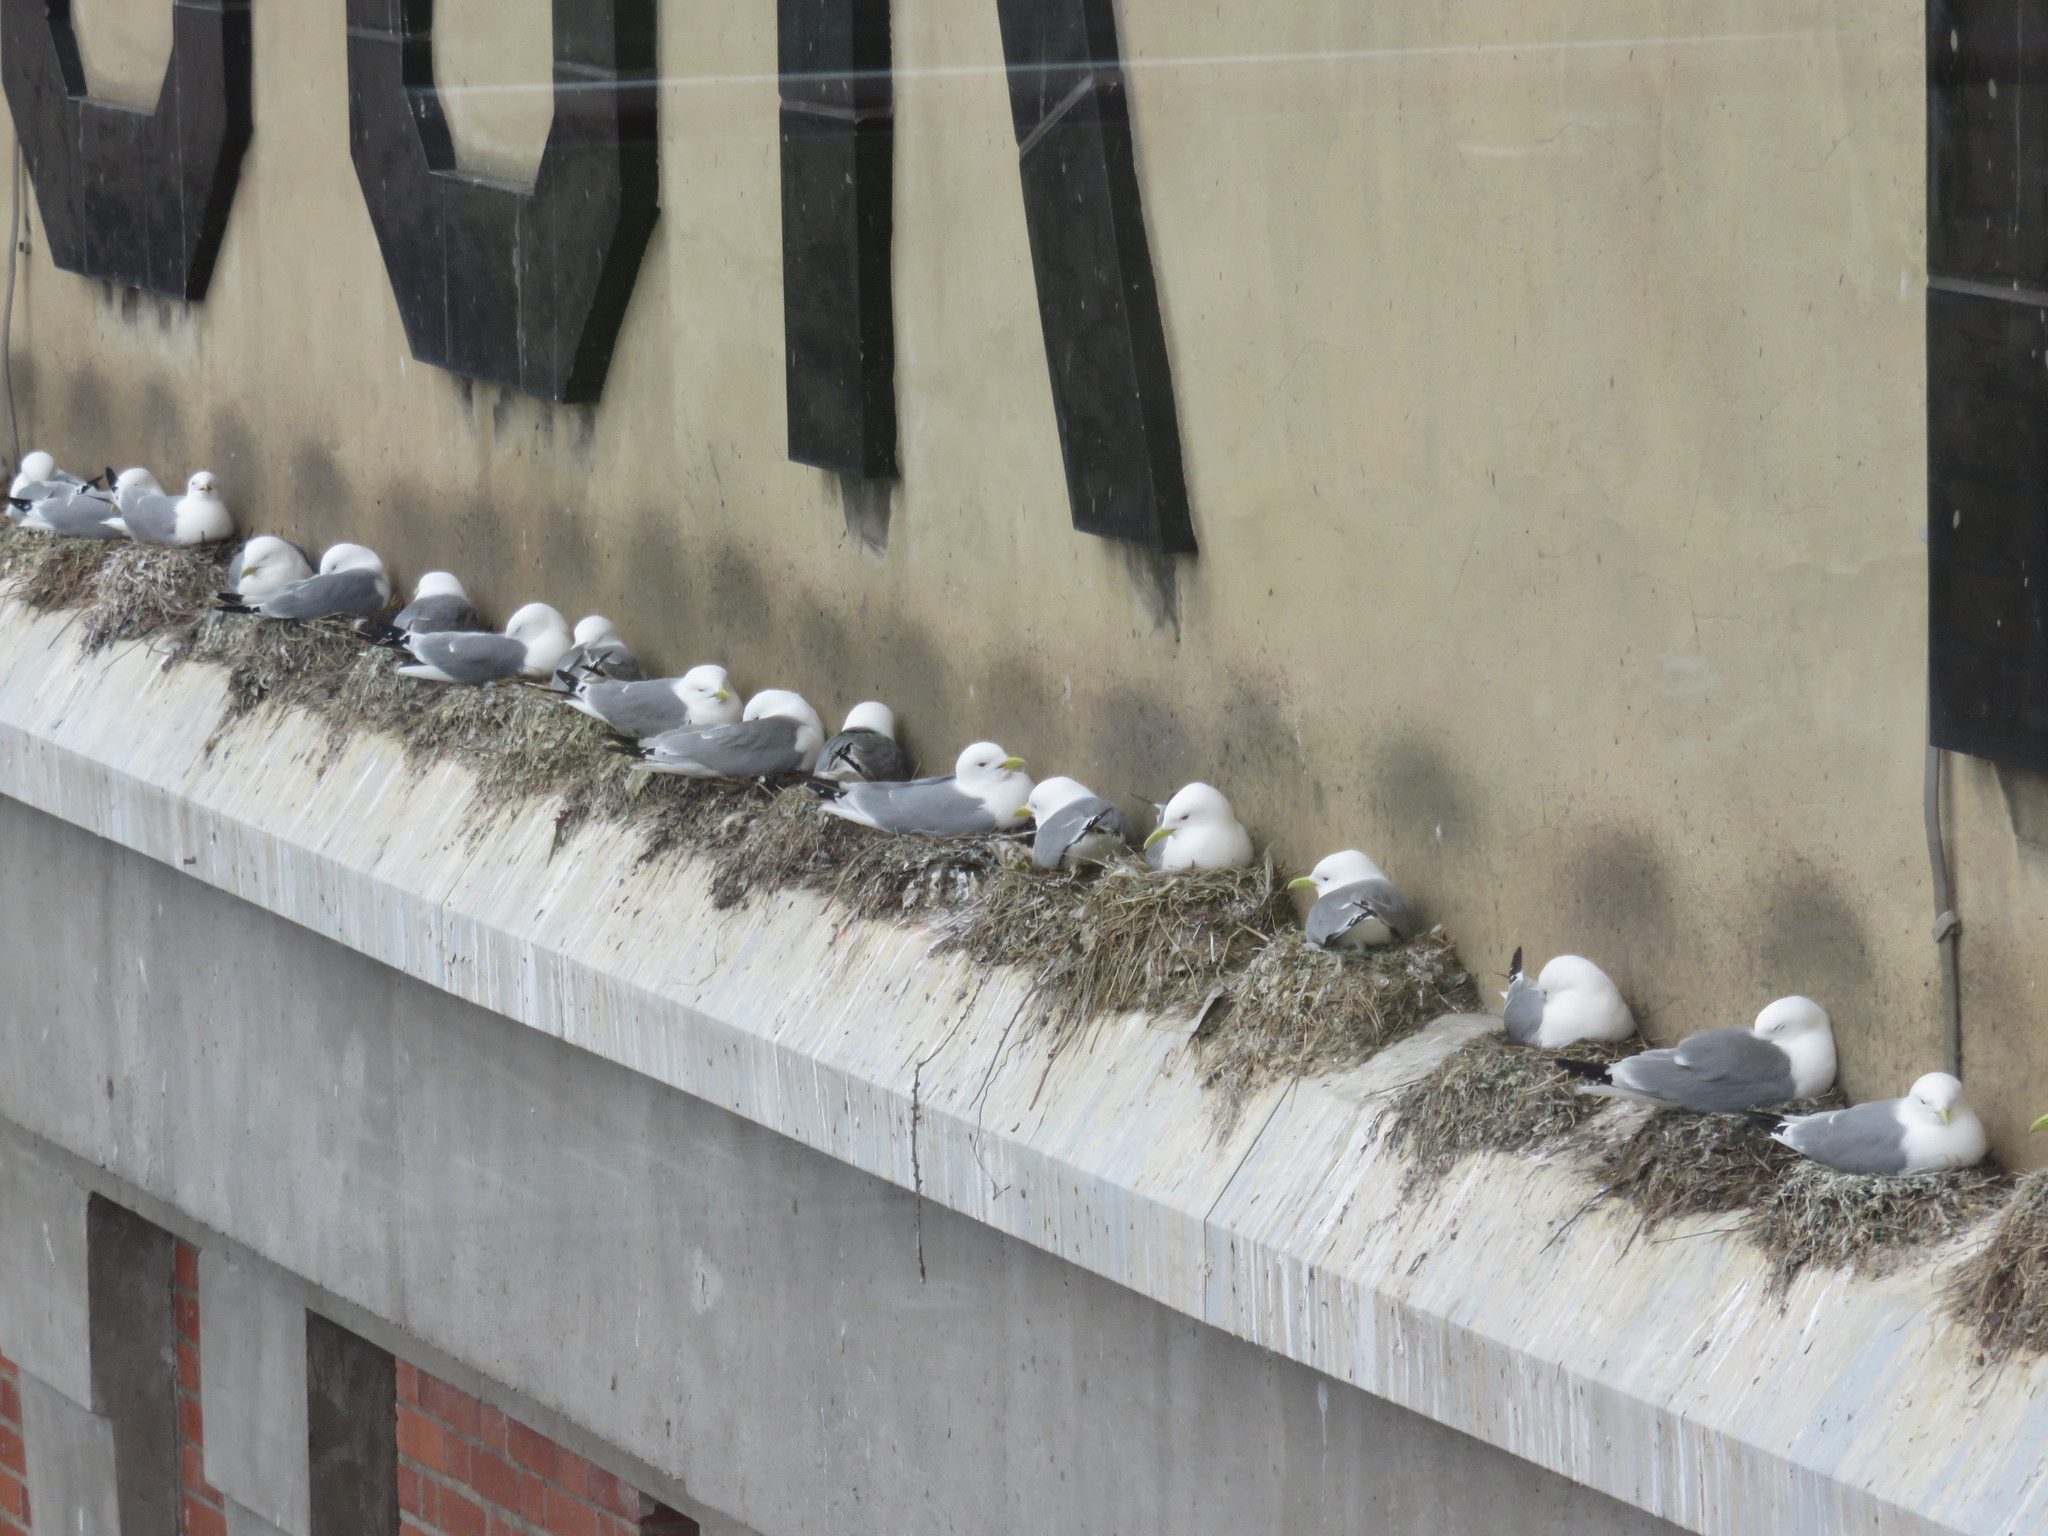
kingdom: Animalia
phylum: Chordata
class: Aves
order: Charadriiformes
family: Laridae
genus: Rissa
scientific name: Rissa tridactyla
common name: Black-legged kittiwake
